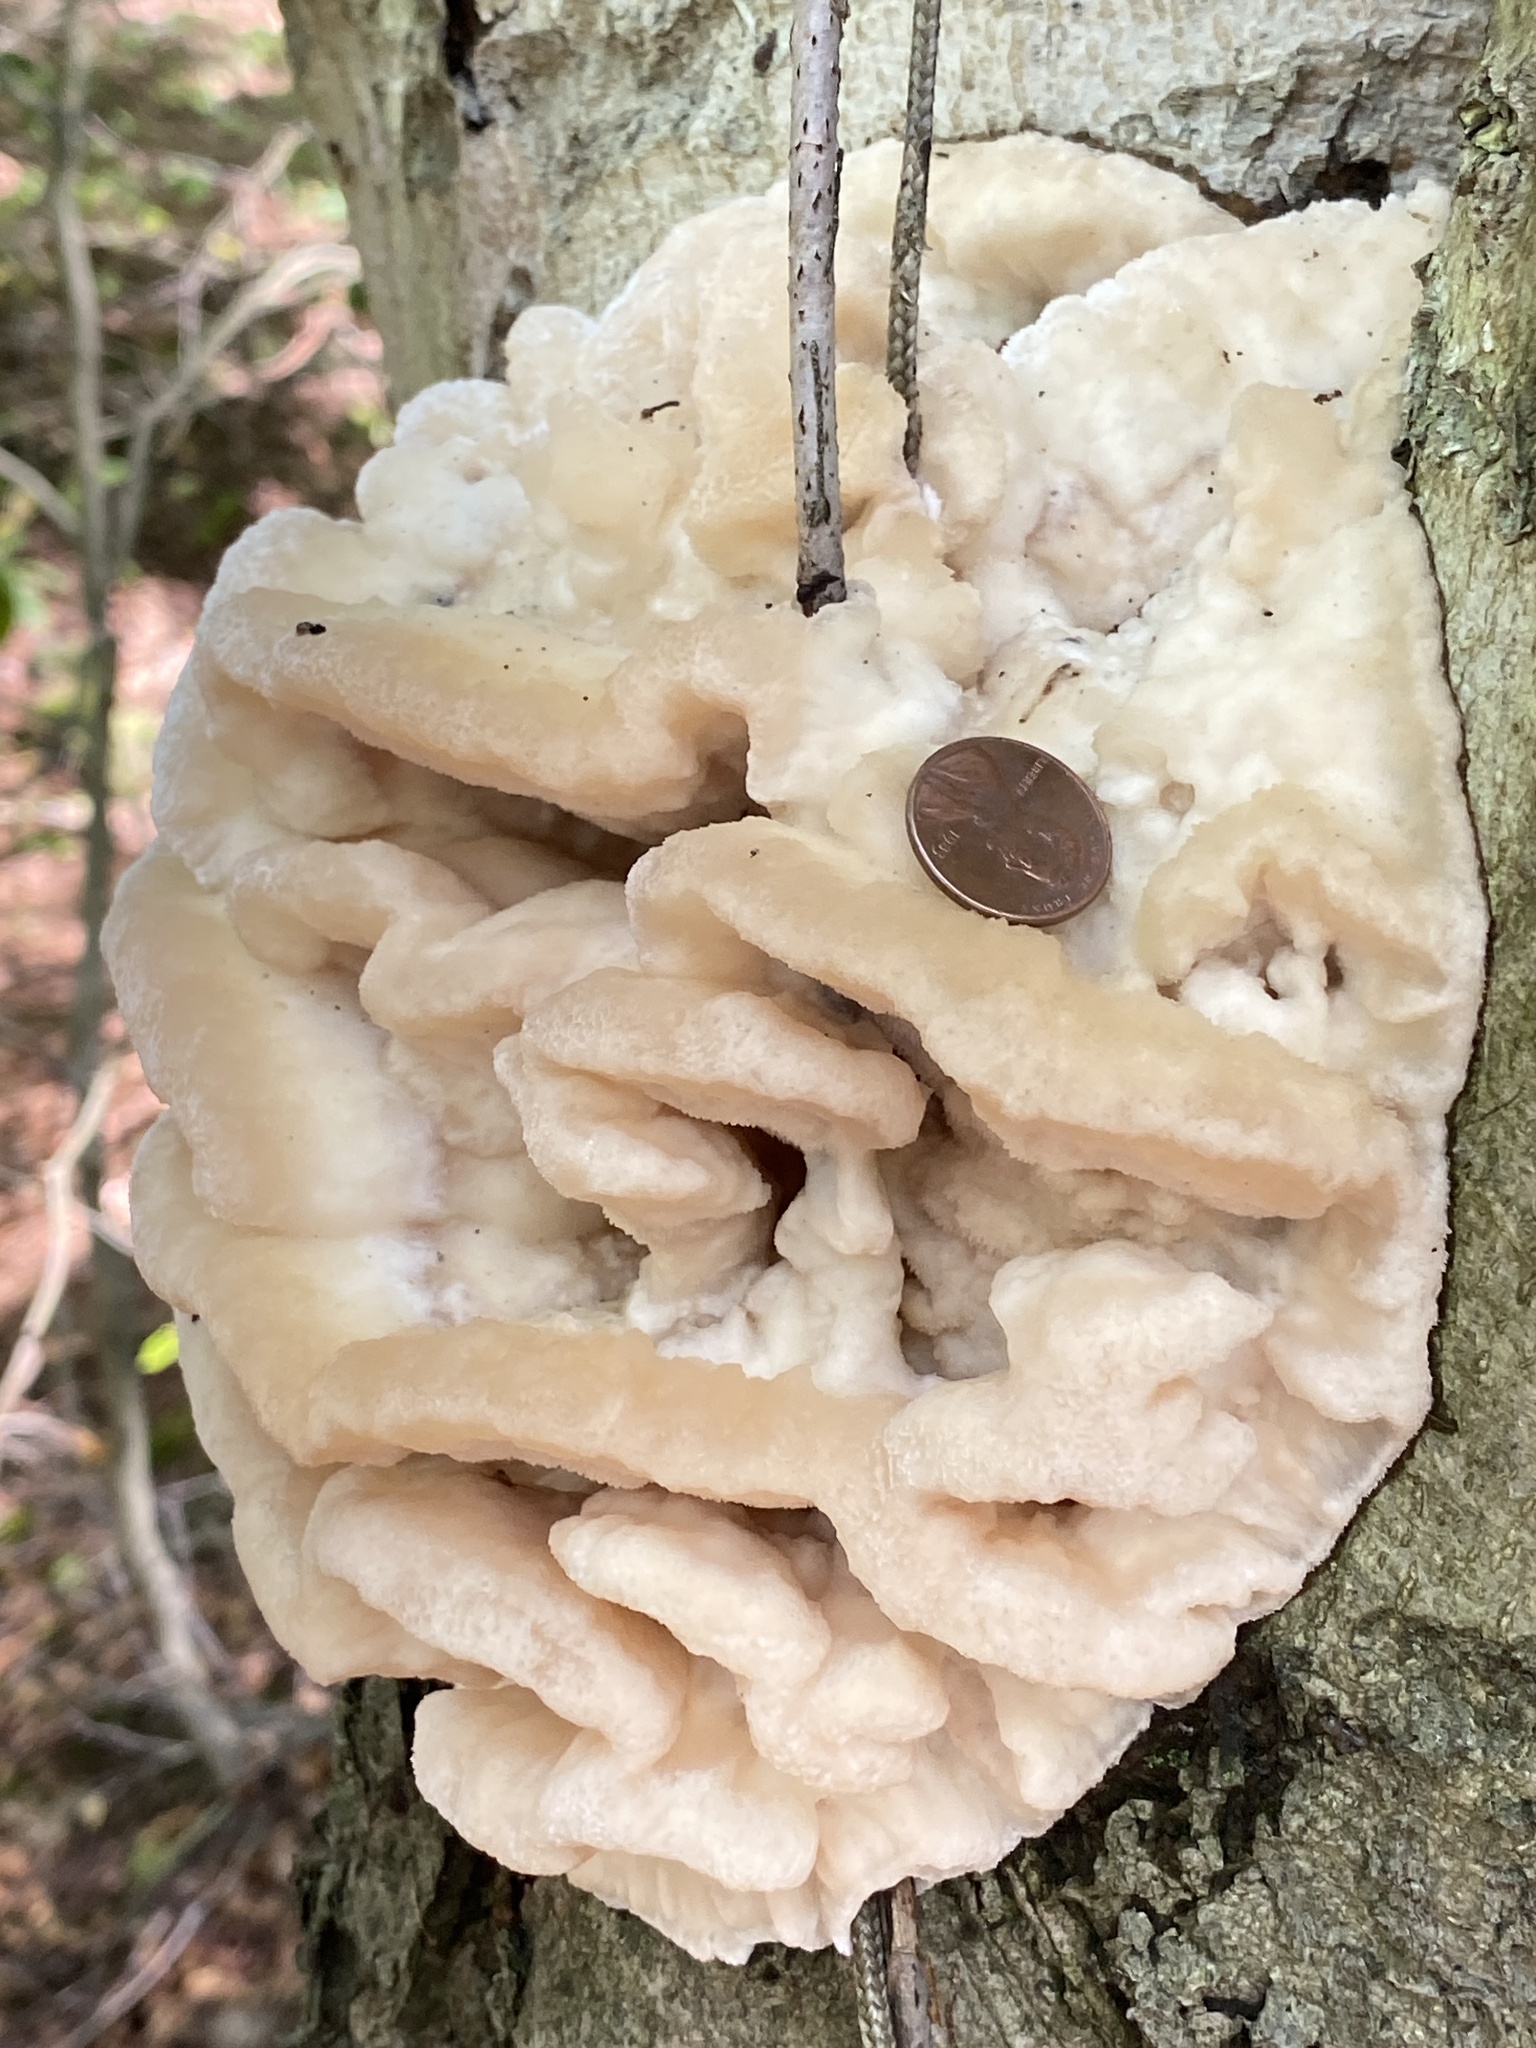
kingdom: Fungi
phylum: Basidiomycota
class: Agaricomycetes
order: Polyporales
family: Meruliaceae
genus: Climacodon
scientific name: Climacodon septentrionalis
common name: Northern tooth
